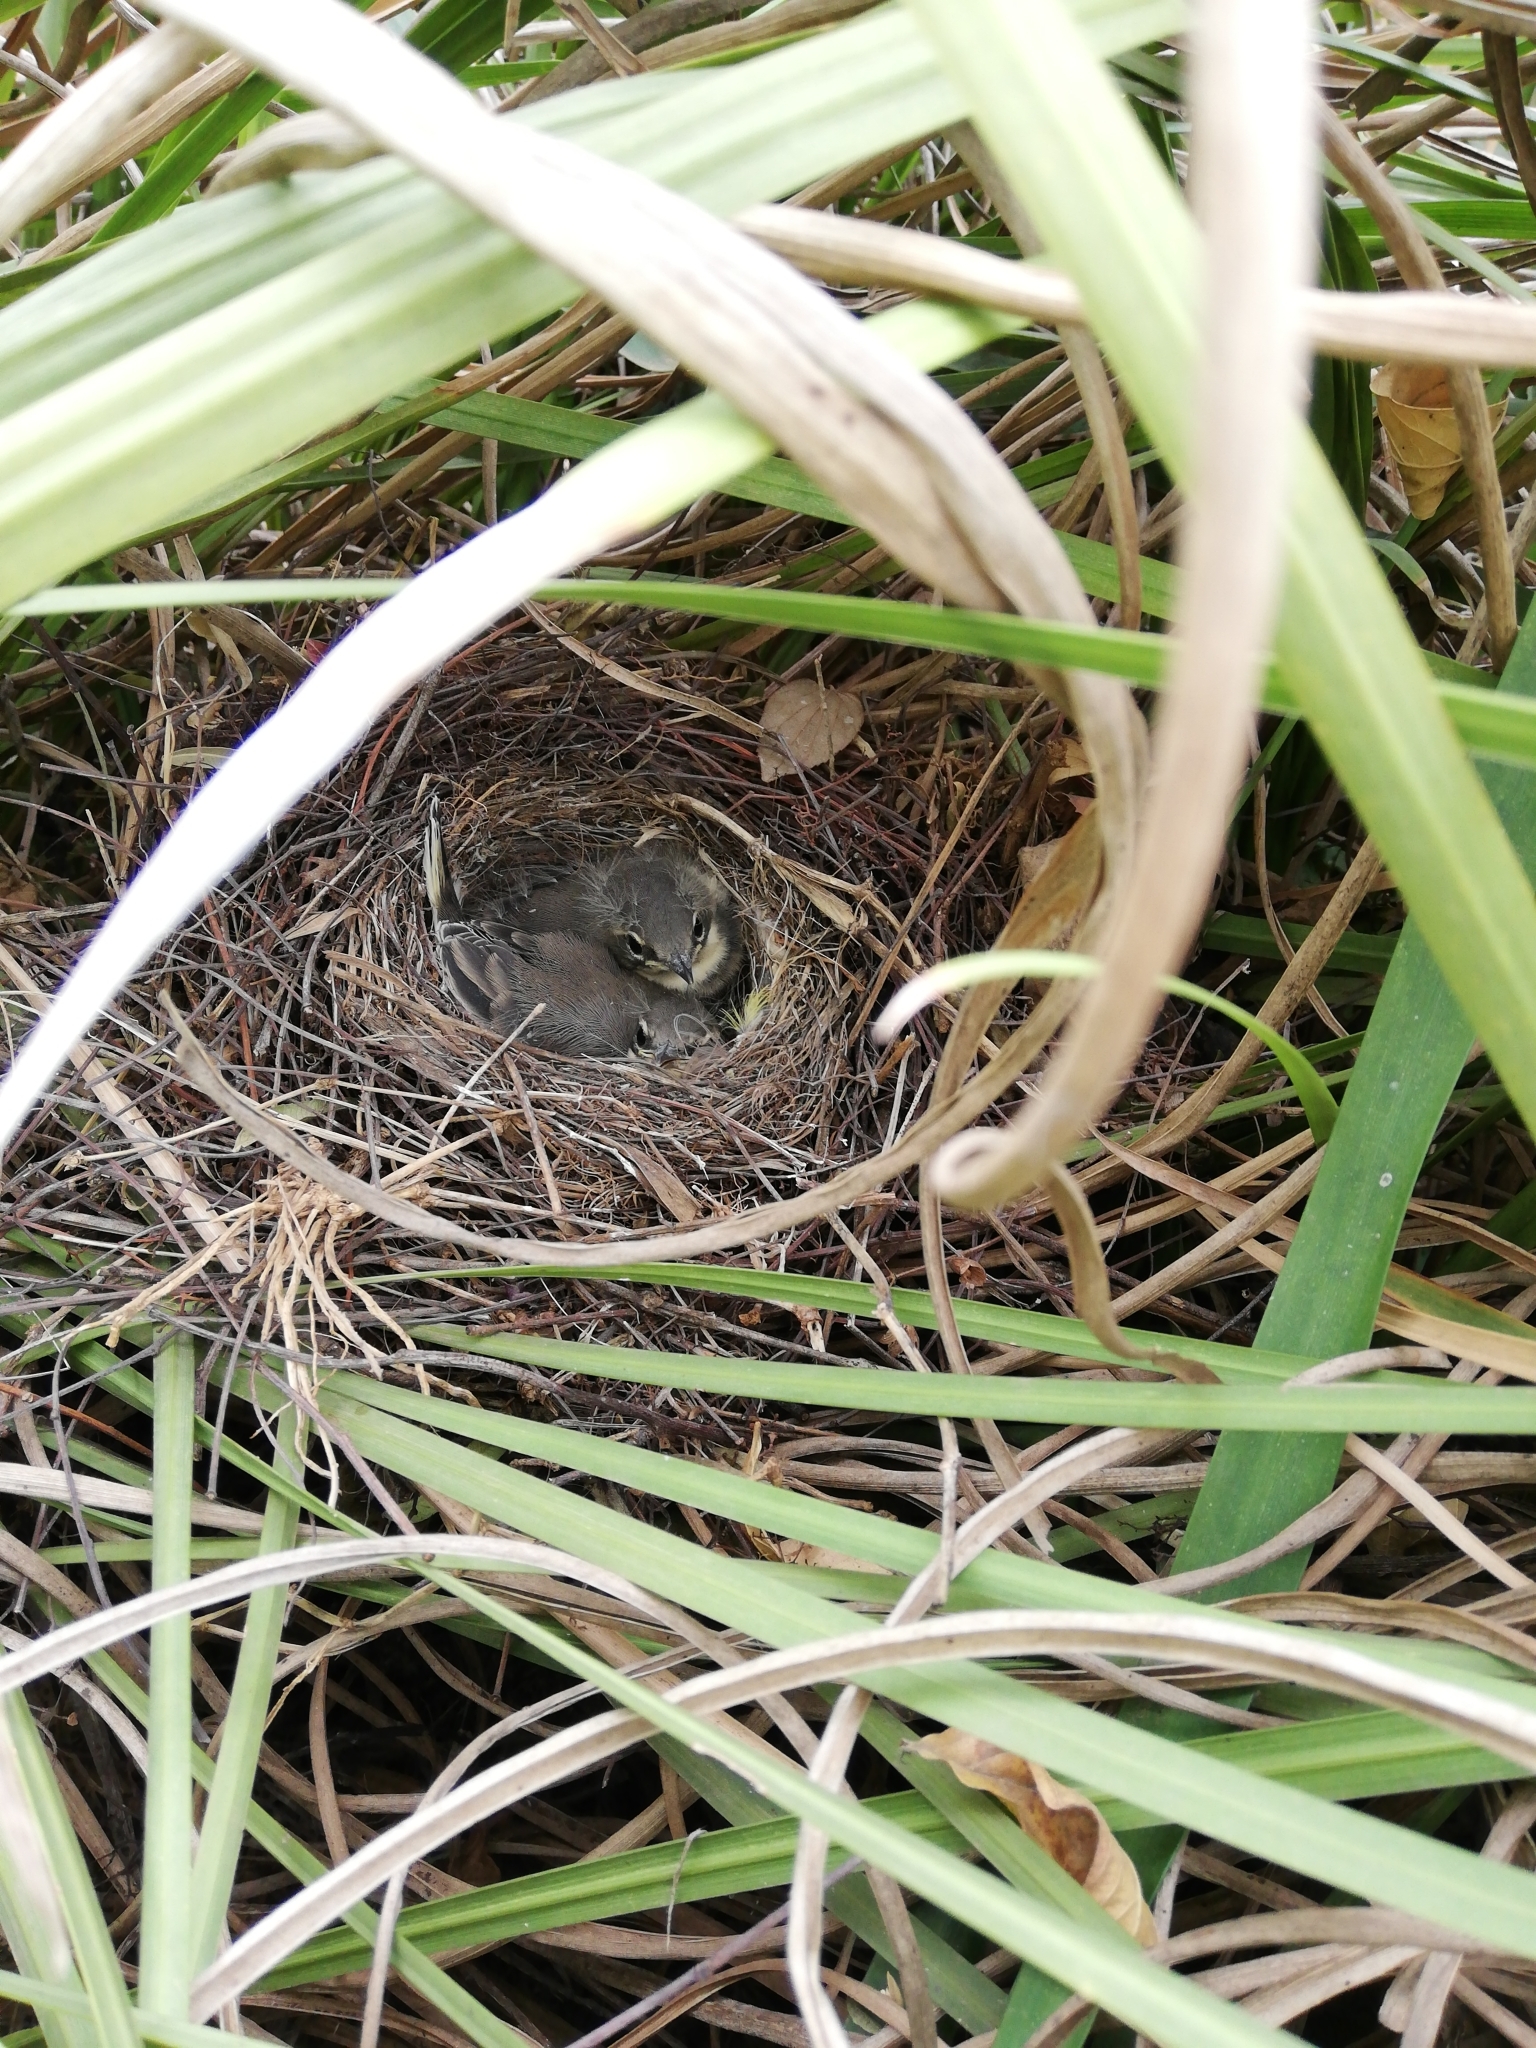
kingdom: Animalia
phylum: Chordata
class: Aves
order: Passeriformes
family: Motacillidae
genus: Motacilla
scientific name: Motacilla capensis
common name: Cape wagtail
